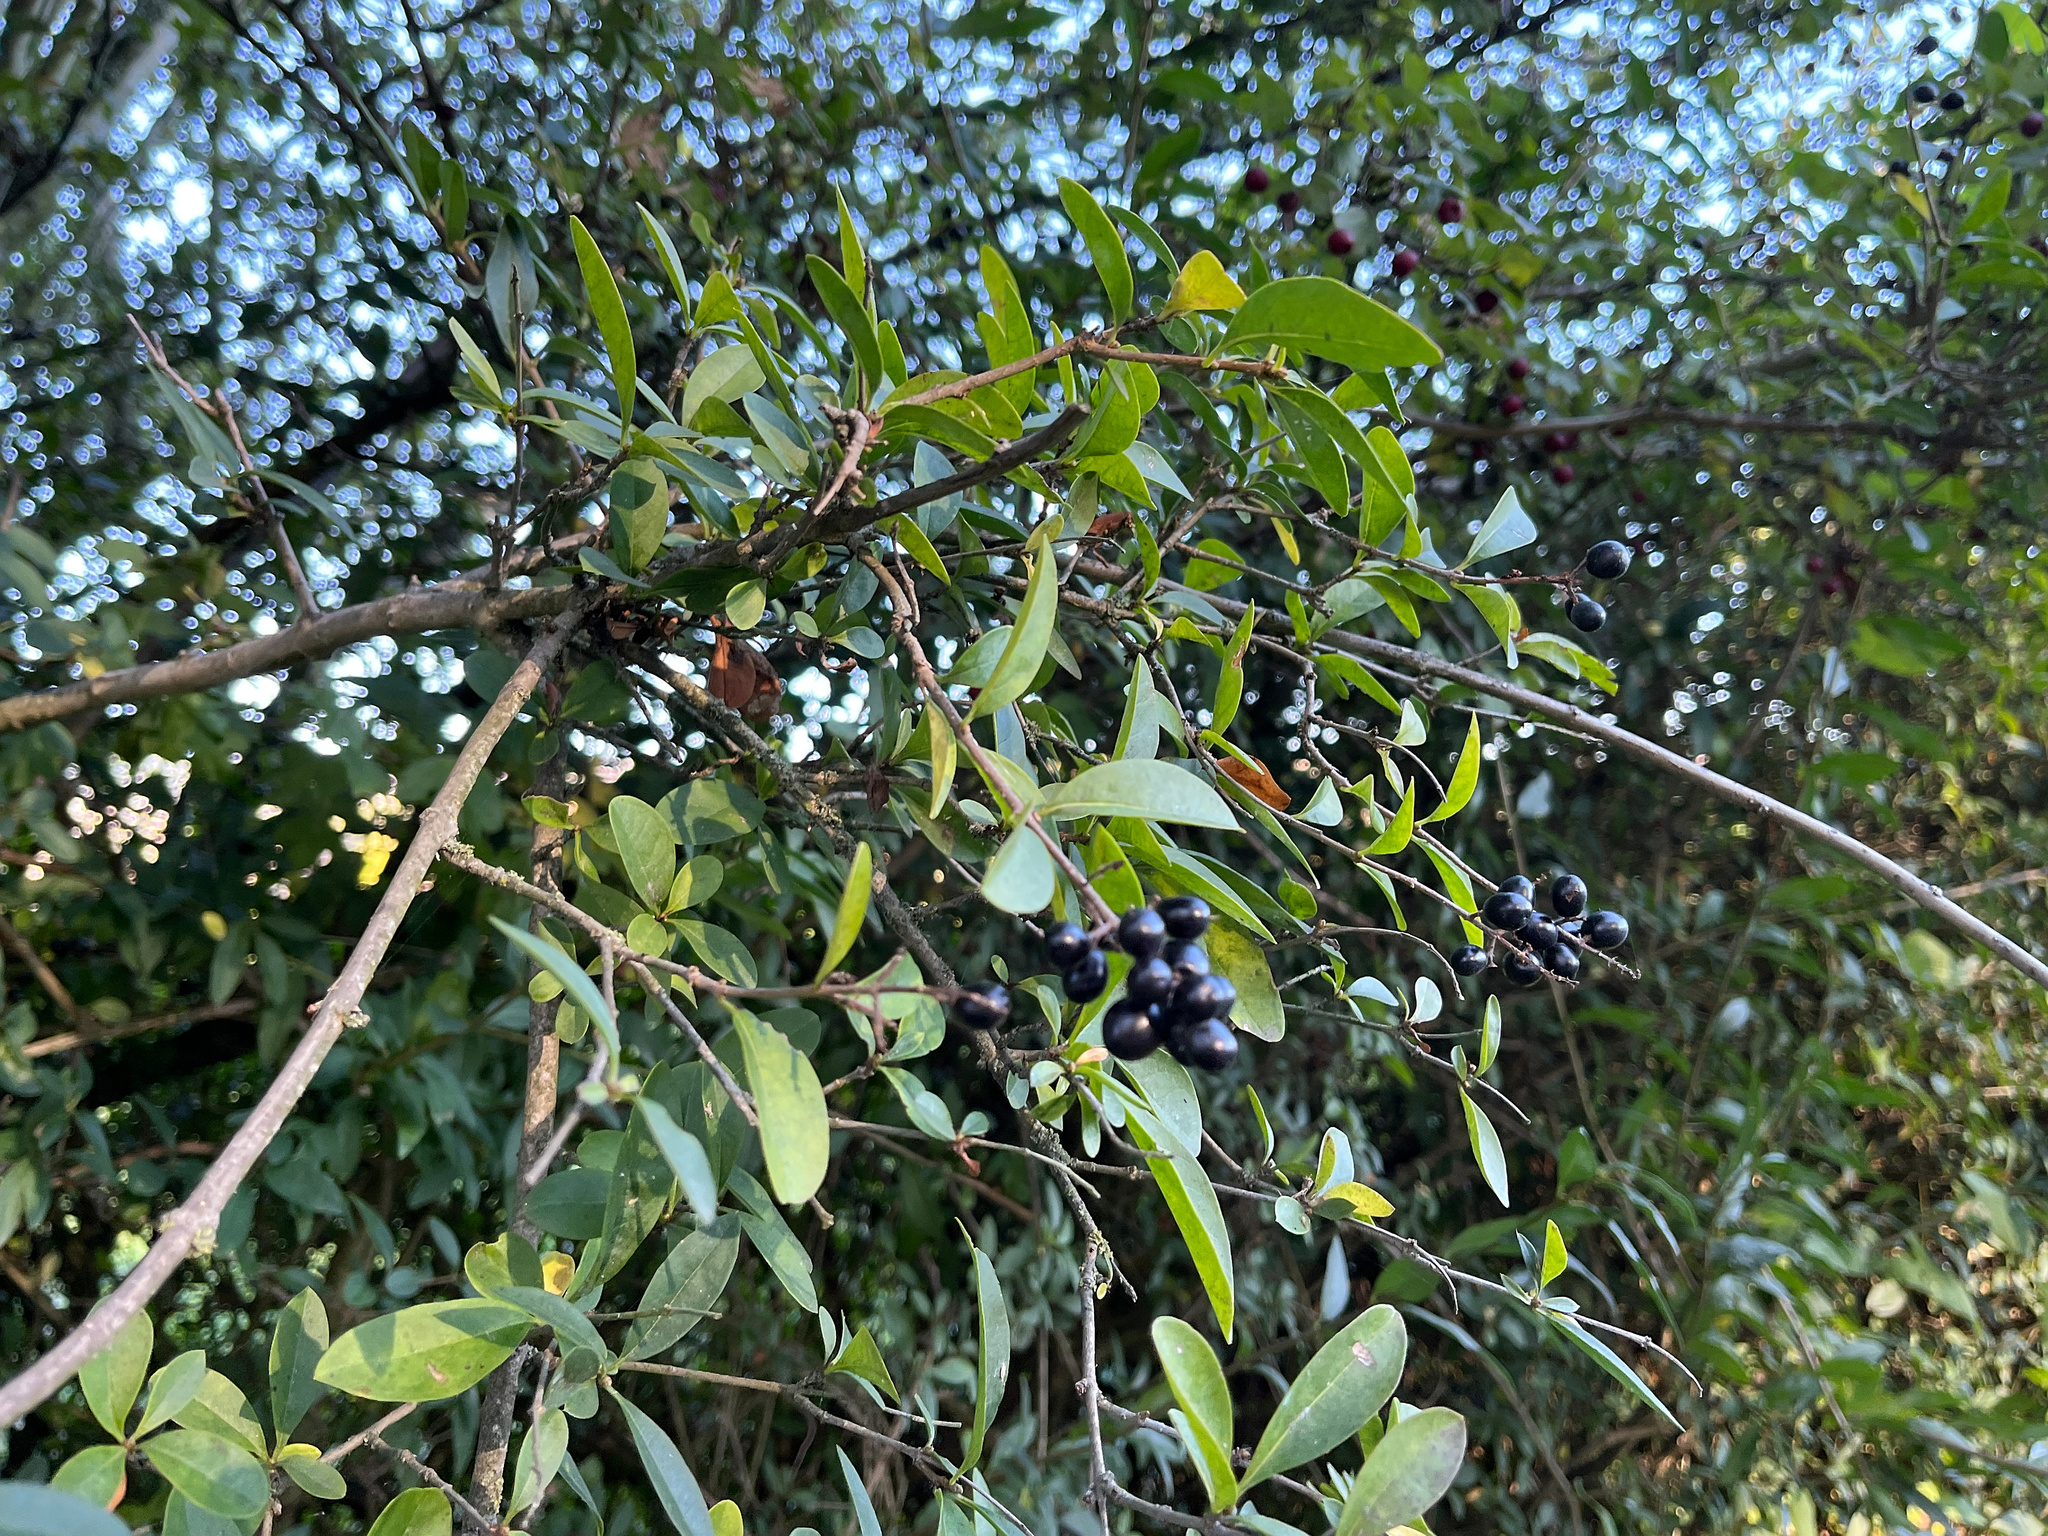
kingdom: Plantae
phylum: Tracheophyta
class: Magnoliopsida
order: Lamiales
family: Oleaceae
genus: Ligustrum
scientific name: Ligustrum vulgare
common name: Wild privet
